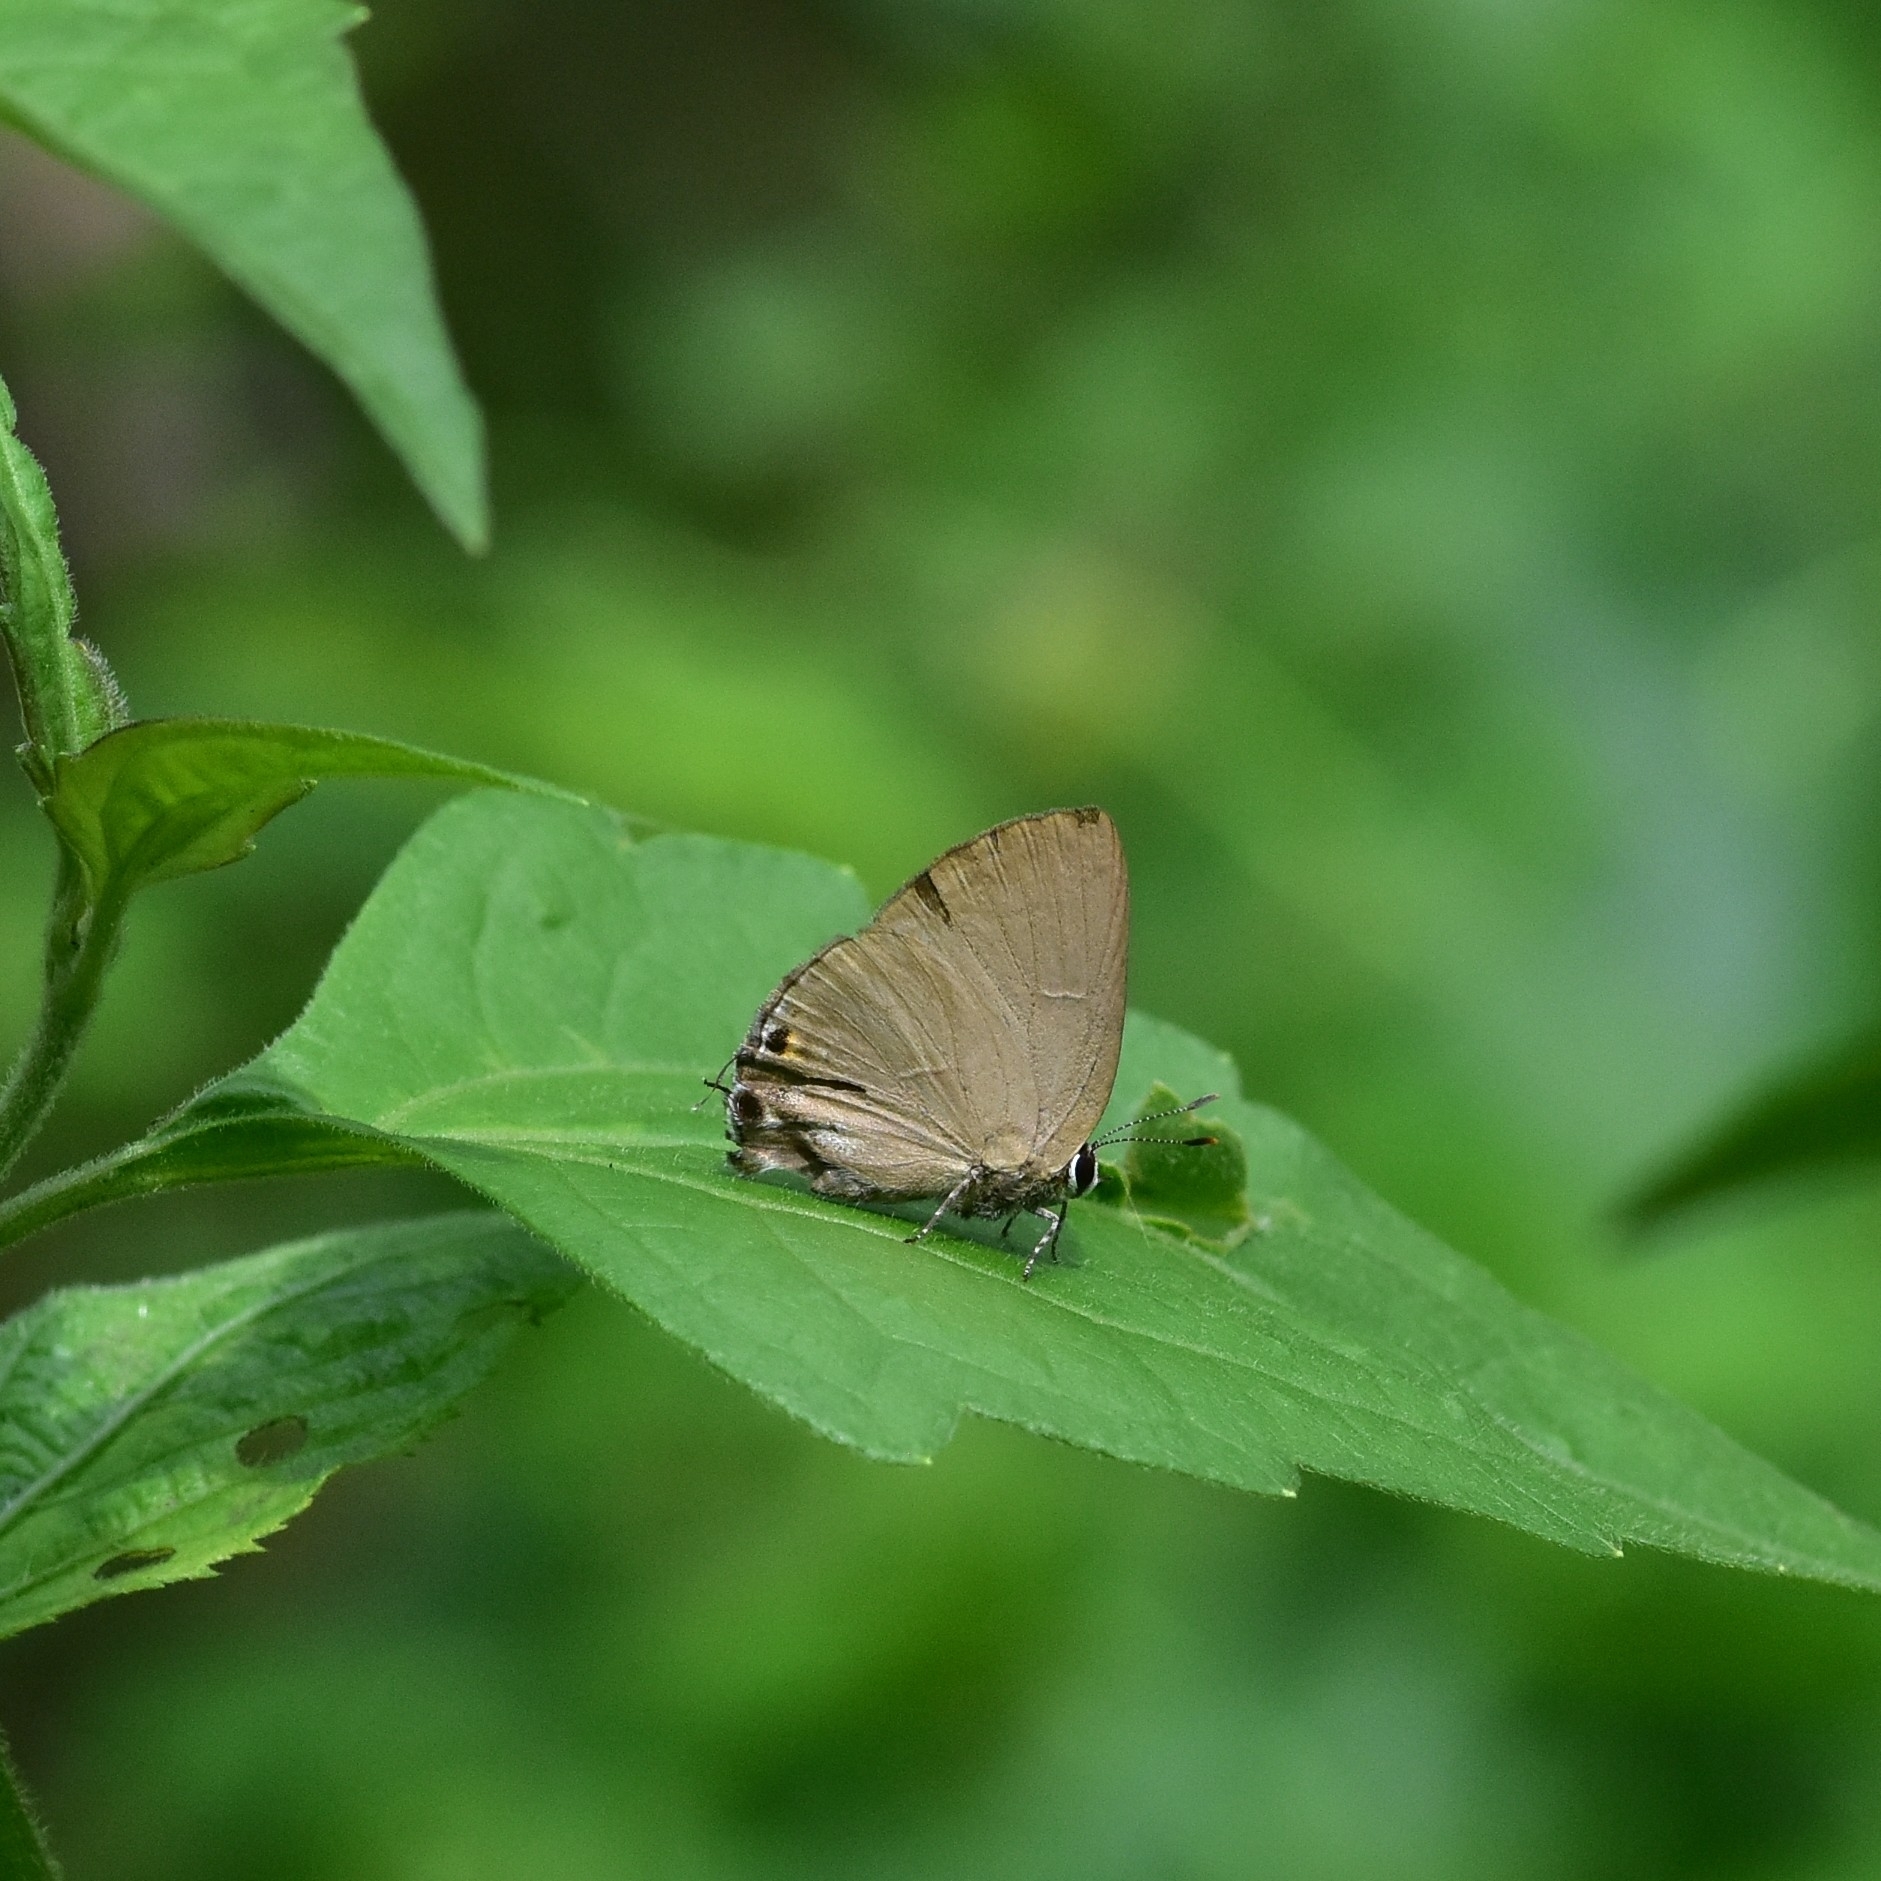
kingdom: Animalia
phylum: Arthropoda
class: Insecta
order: Lepidoptera
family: Lycaenidae
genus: Rapala
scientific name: Rapala manea
